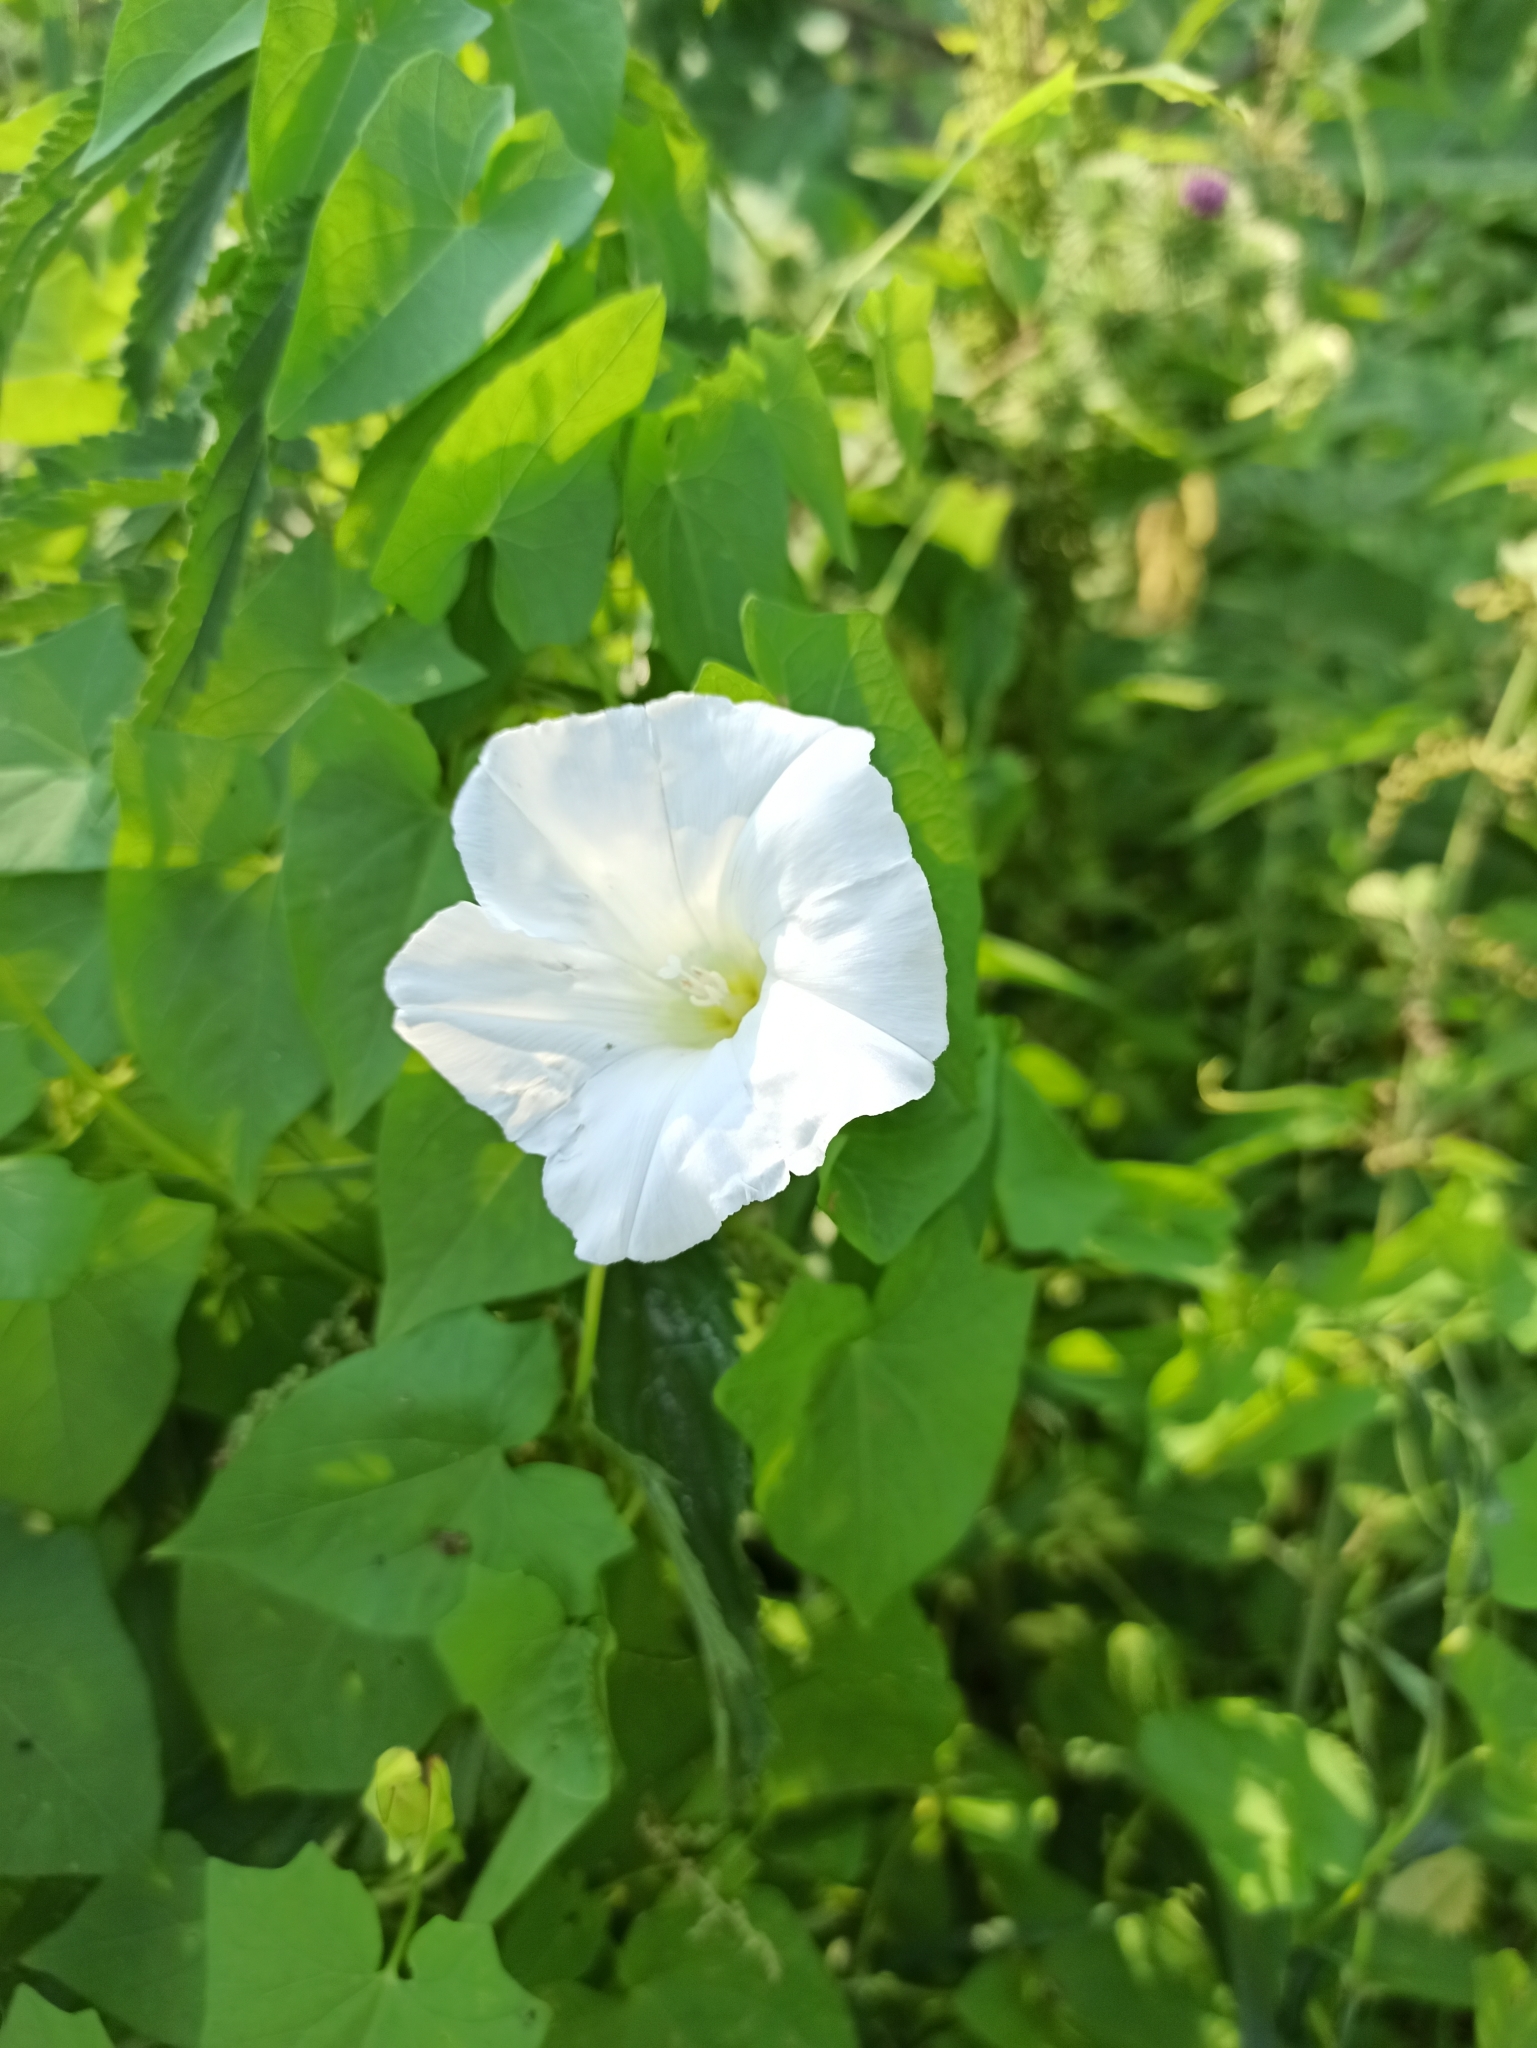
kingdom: Plantae
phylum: Tracheophyta
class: Magnoliopsida
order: Solanales
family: Convolvulaceae
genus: Calystegia
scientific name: Calystegia sepium
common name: Hedge bindweed
